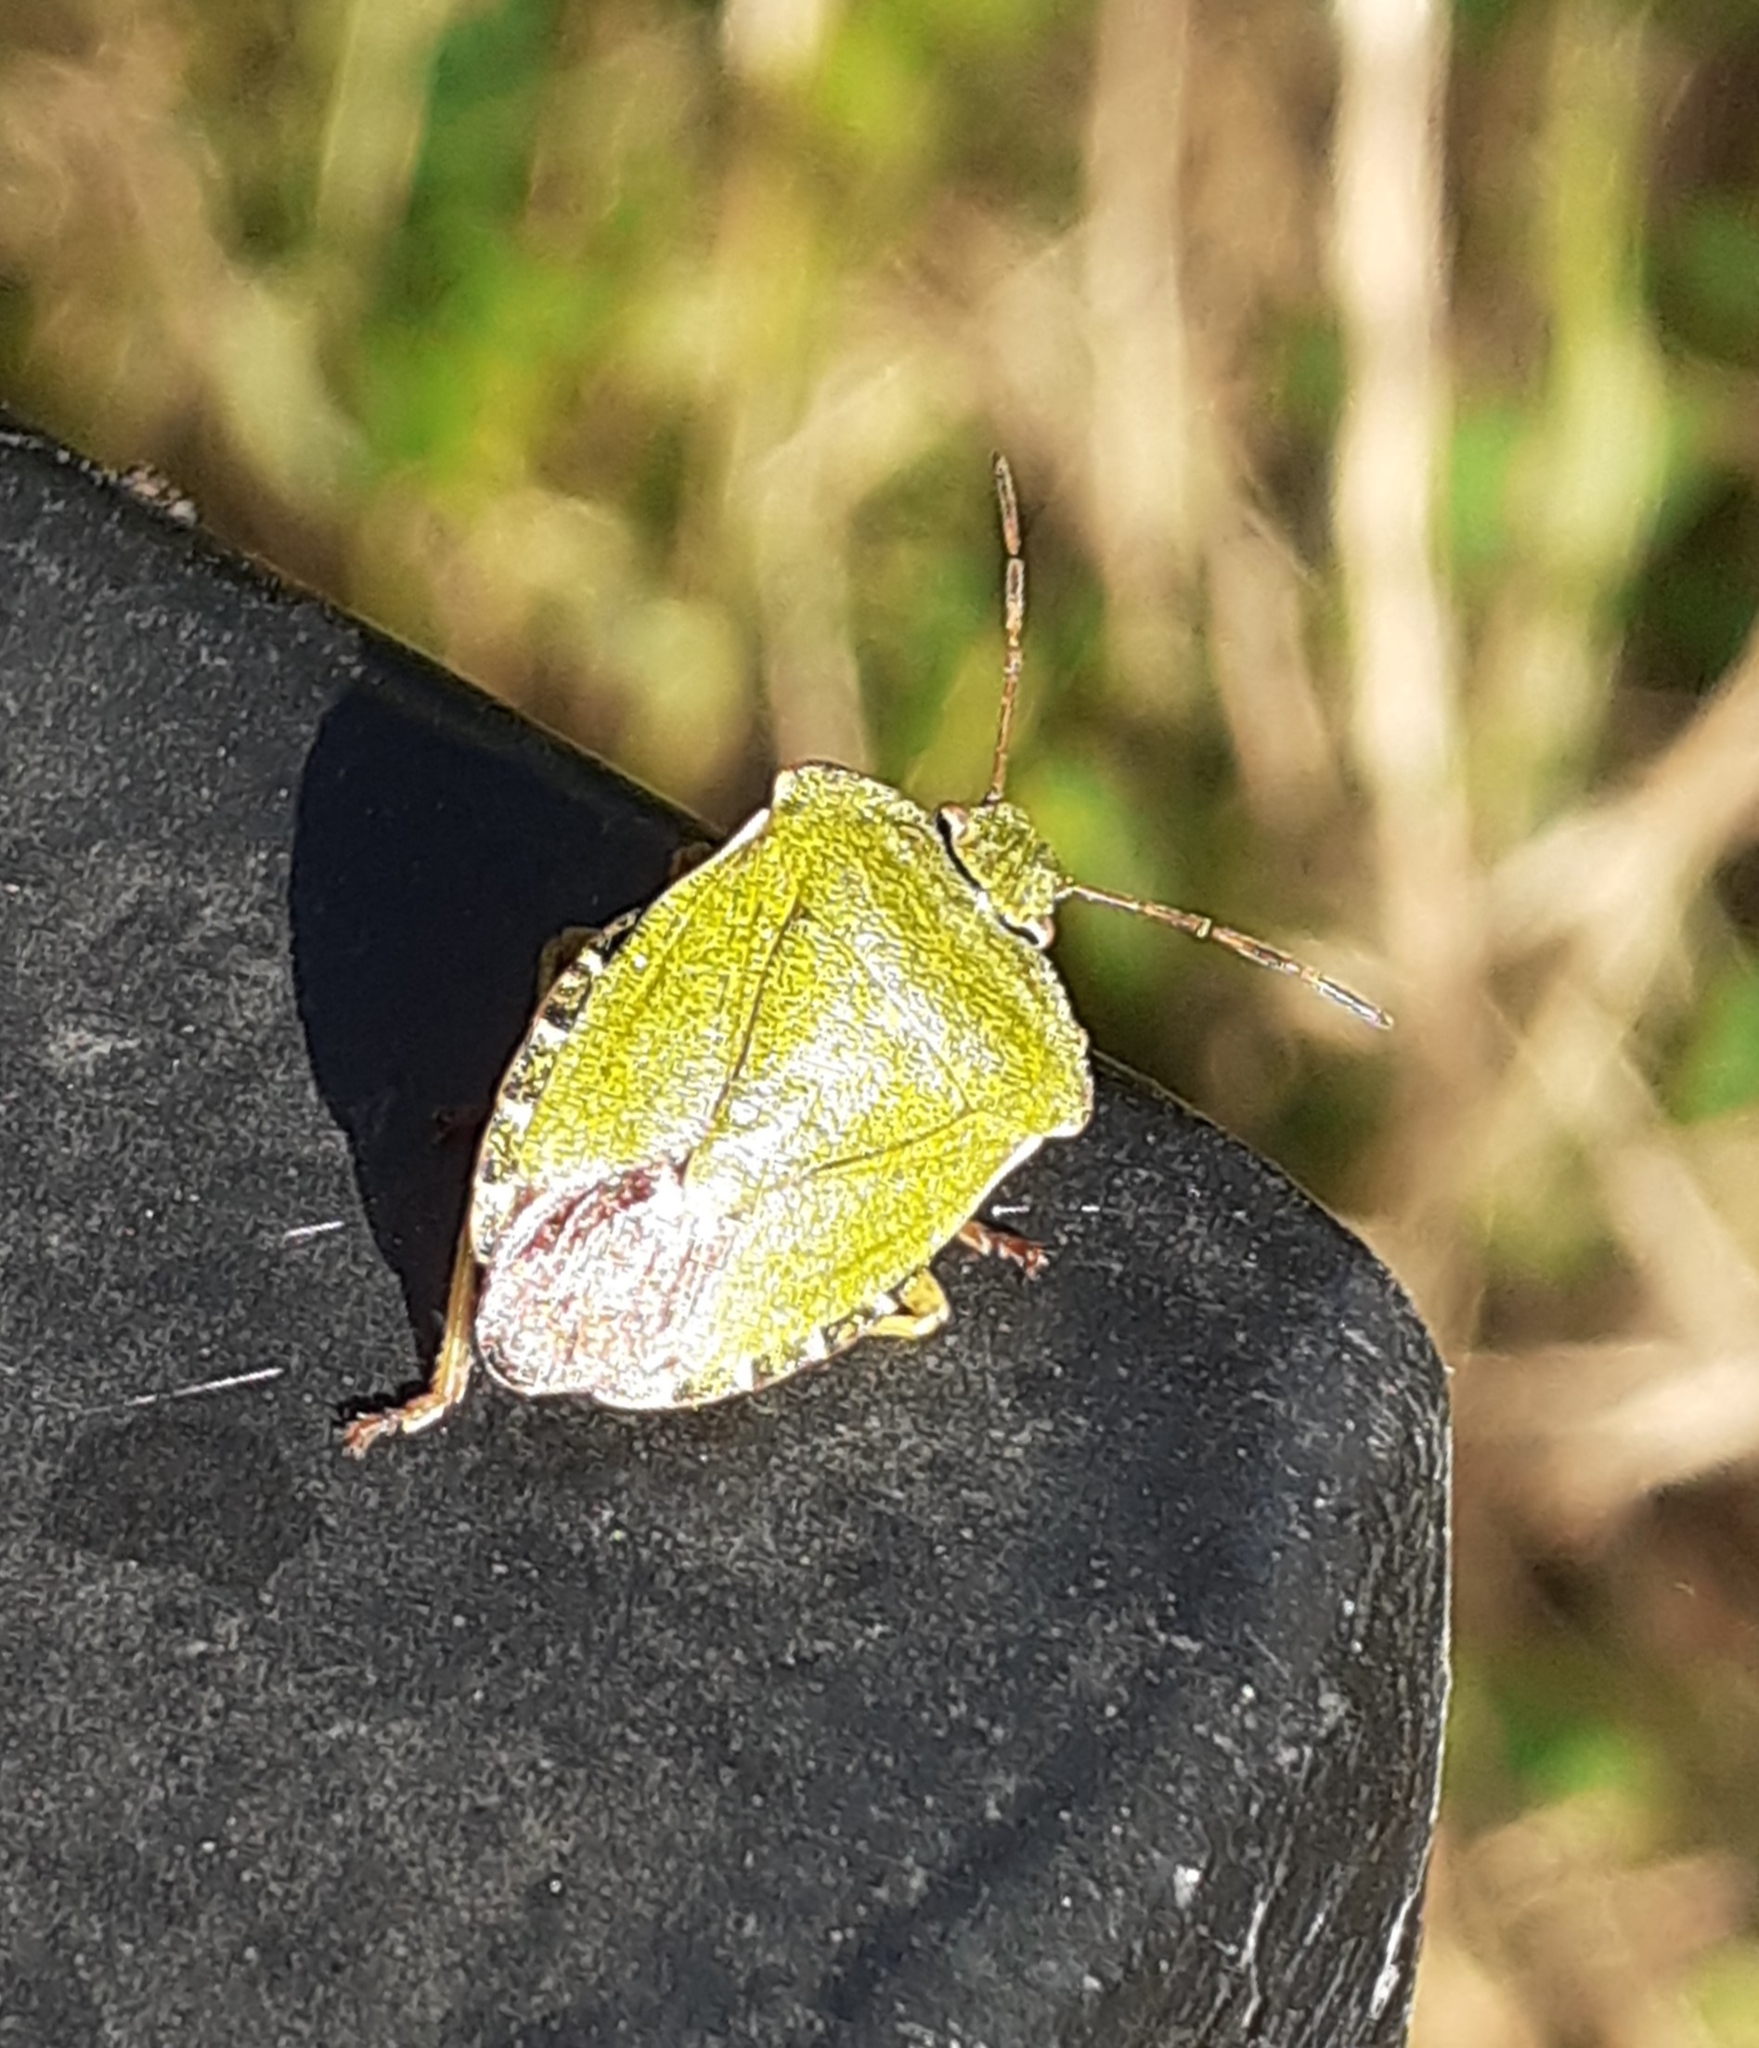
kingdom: Animalia
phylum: Arthropoda
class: Insecta
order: Hemiptera
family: Pentatomidae
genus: Palomena
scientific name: Palomena prasina
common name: Green shieldbug
